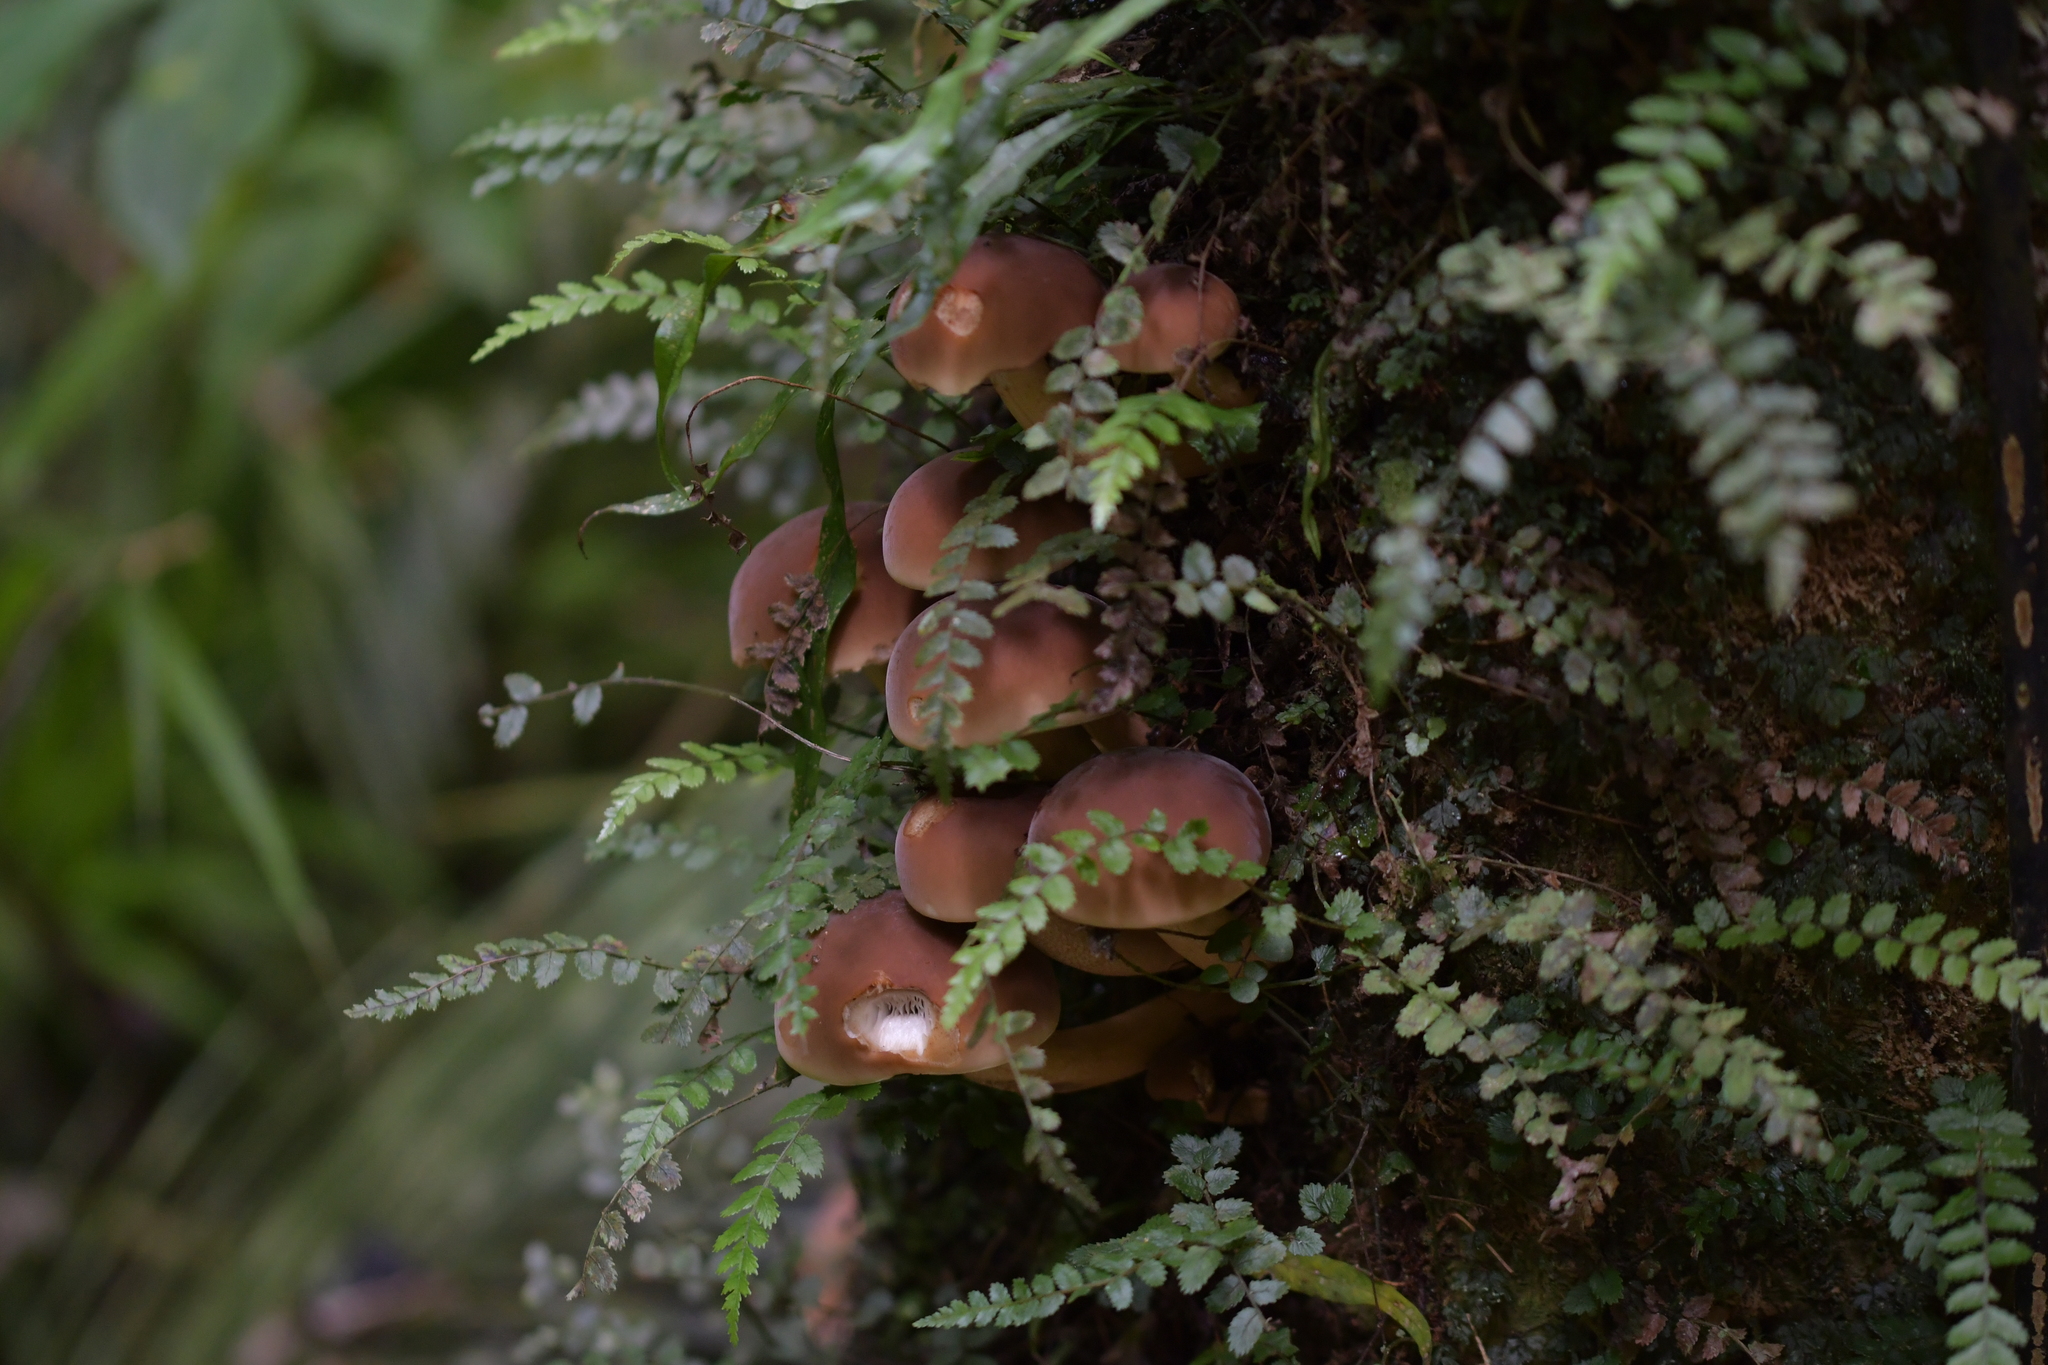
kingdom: Fungi
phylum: Basidiomycota
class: Agaricomycetes
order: Agaricales
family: Tubariaceae
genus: Cyclocybe
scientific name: Cyclocybe parasitica
